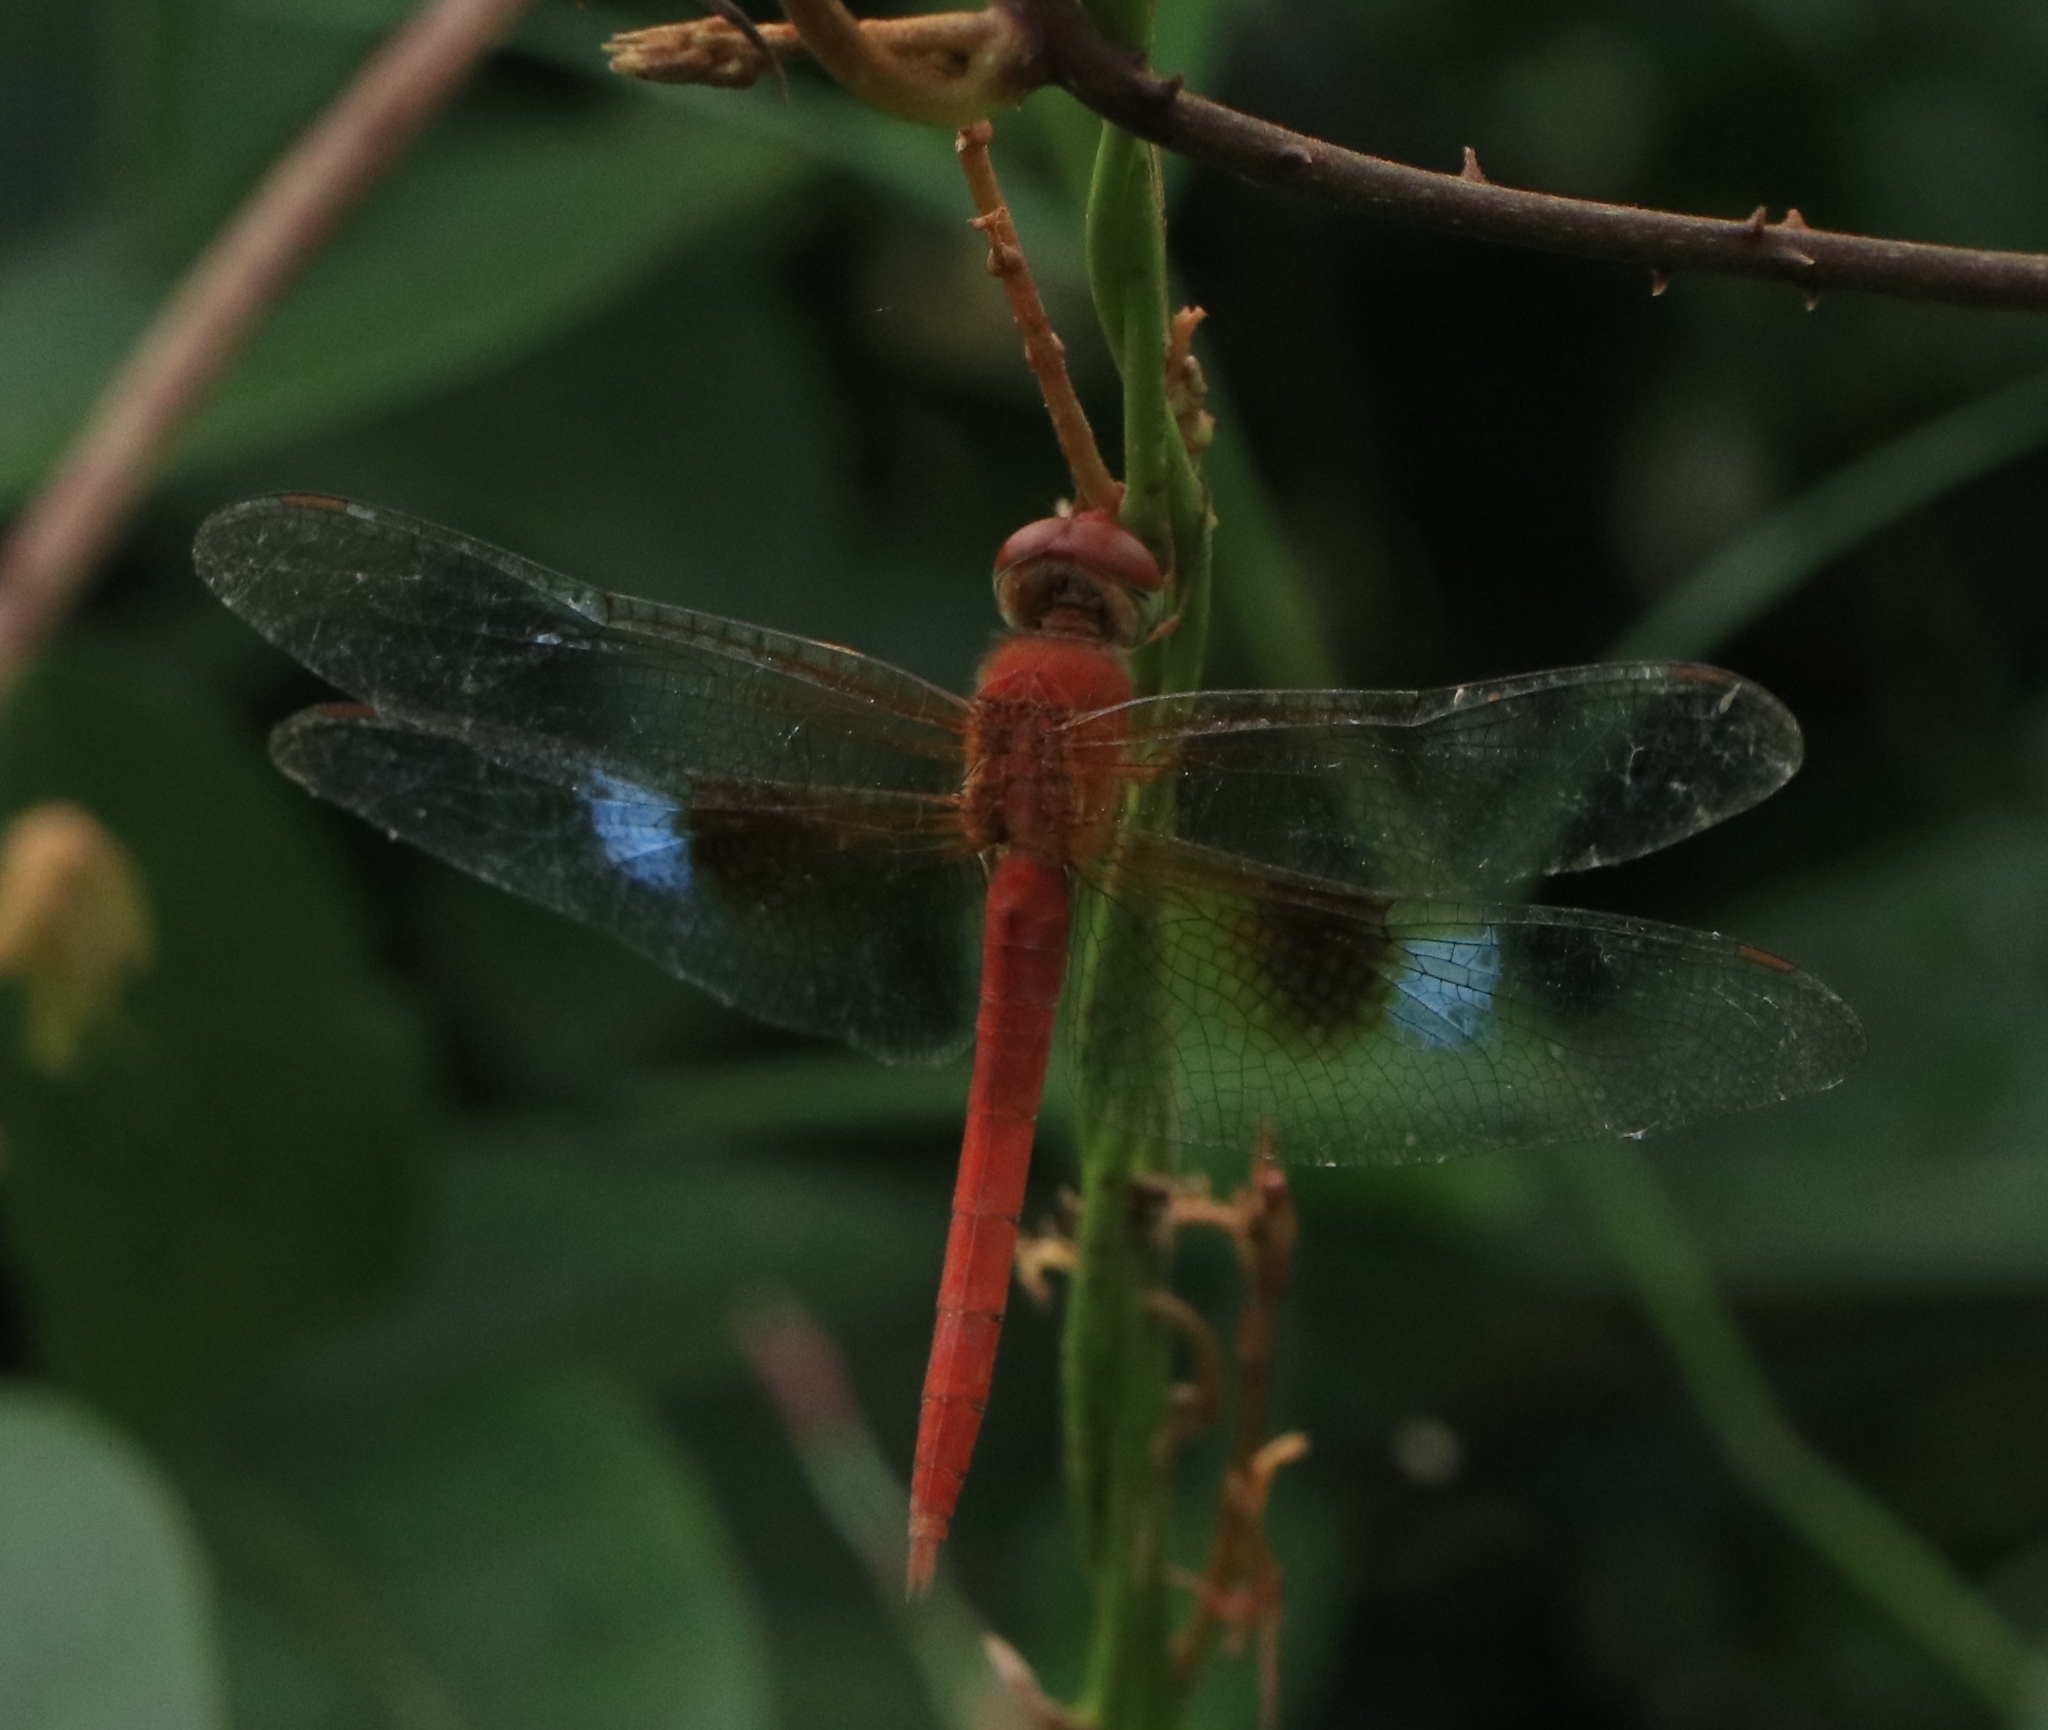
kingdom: Animalia
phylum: Arthropoda
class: Insecta
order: Odonata
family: Libellulidae
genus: Tholymis
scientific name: Tholymis tillarga
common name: Coral-tailed cloud wing
